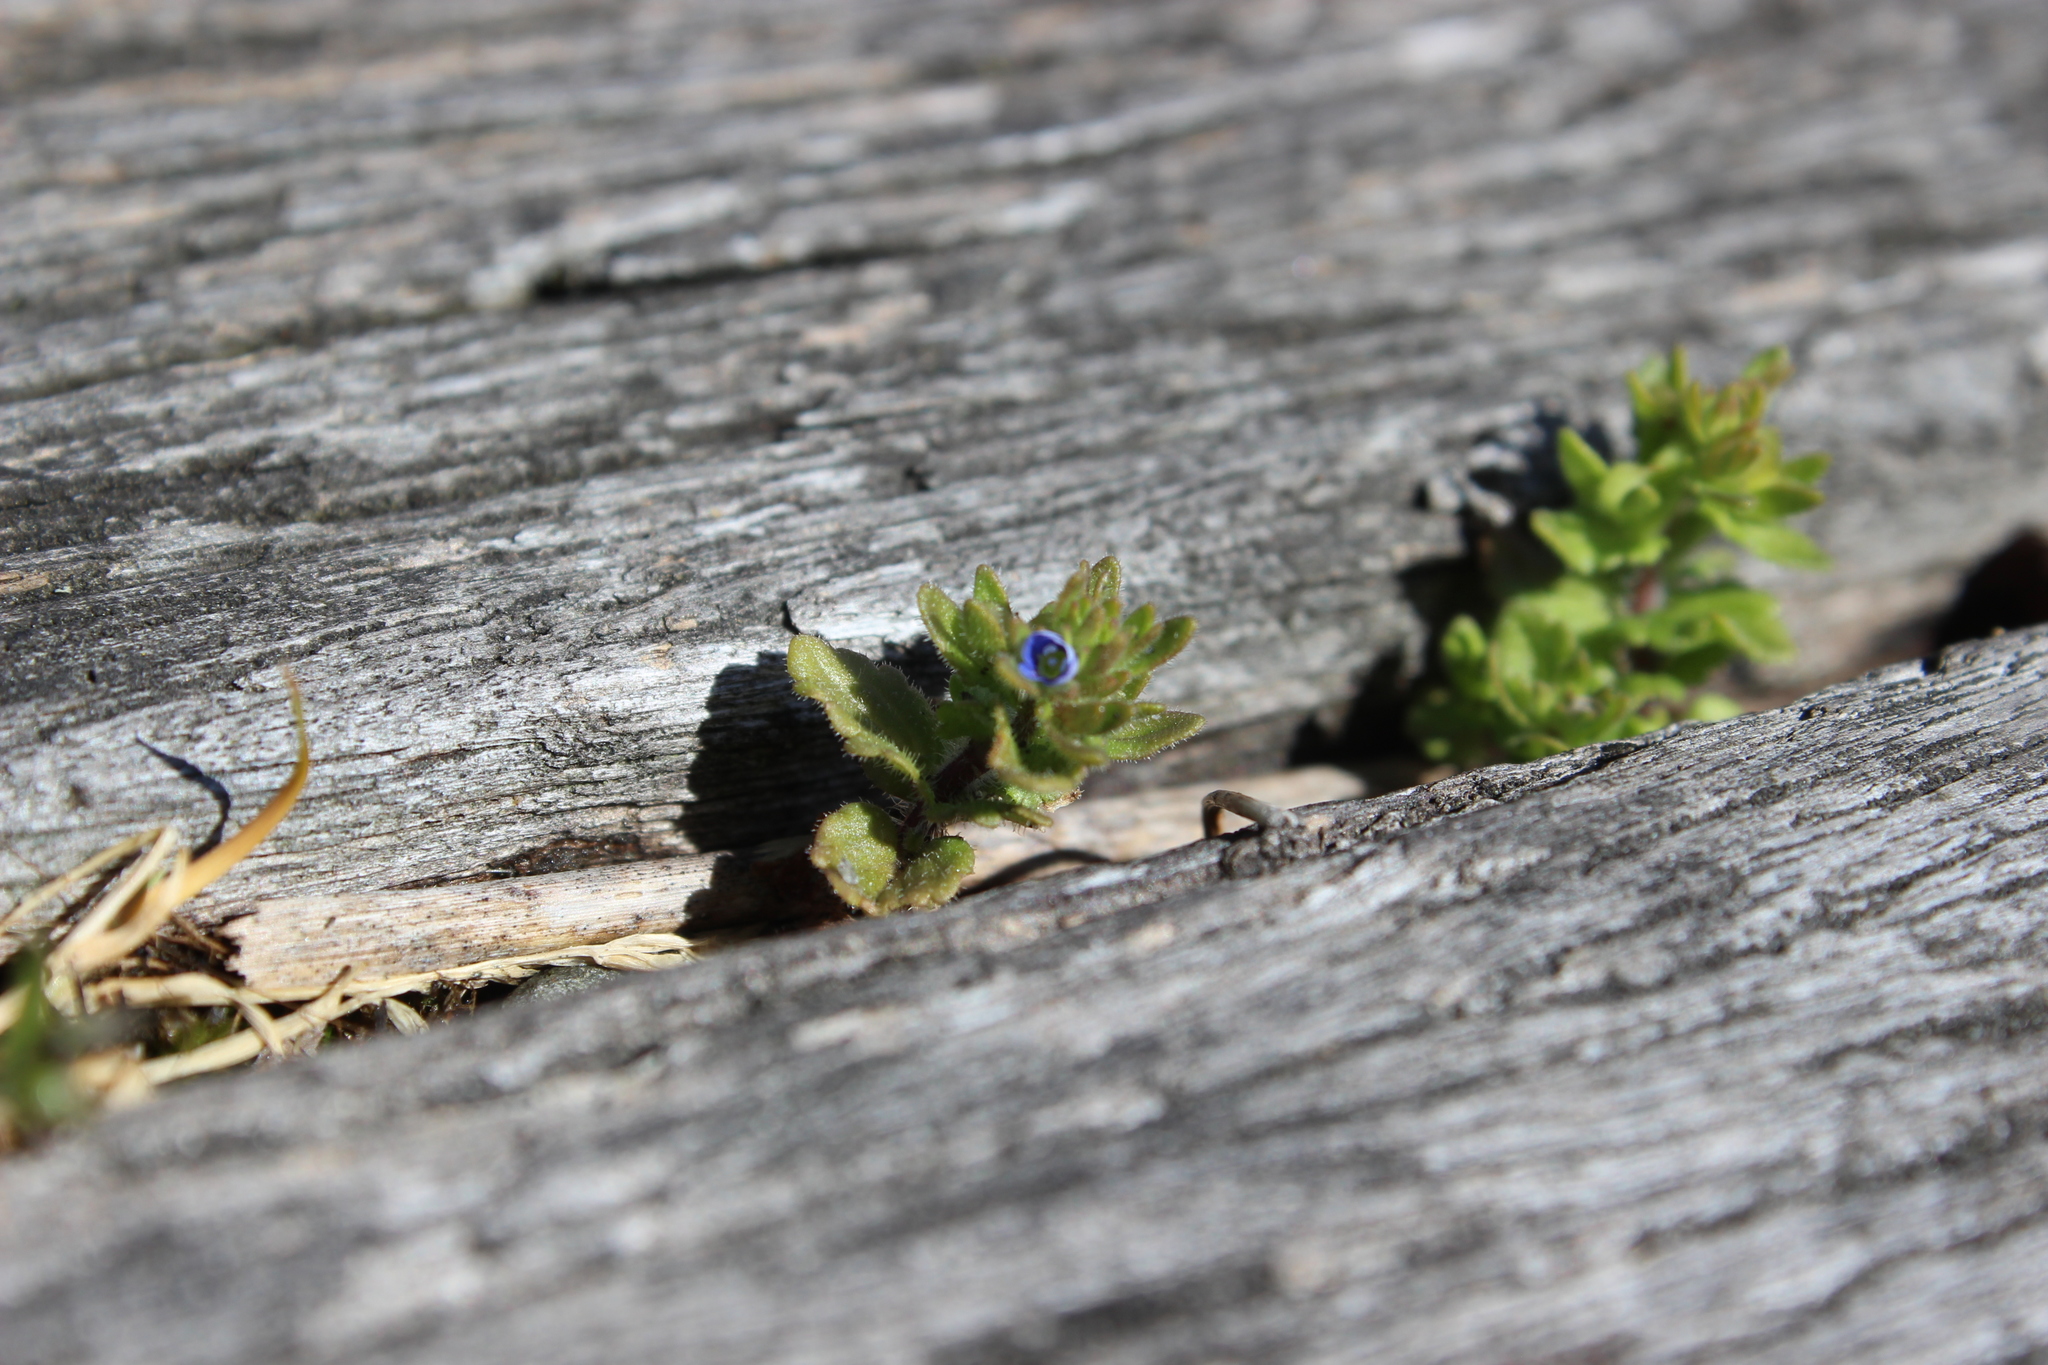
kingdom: Plantae
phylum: Tracheophyta
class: Magnoliopsida
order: Lamiales
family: Plantaginaceae
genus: Veronica
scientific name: Veronica arvensis
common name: Corn speedwell
